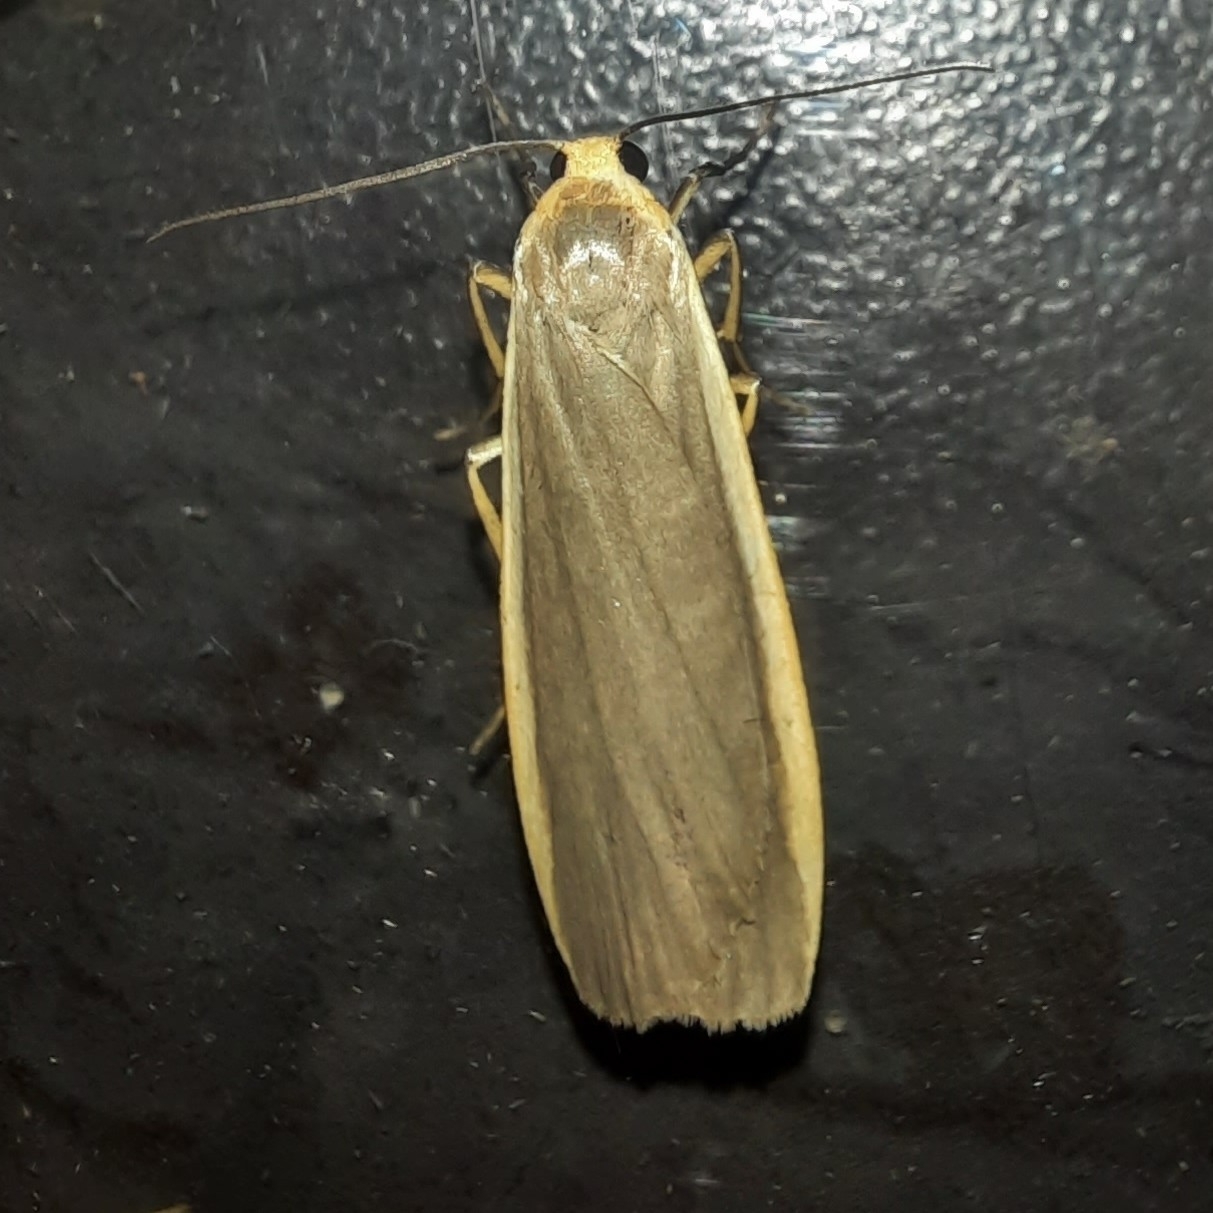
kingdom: Animalia
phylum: Arthropoda
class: Insecta
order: Lepidoptera
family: Erebidae
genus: Nyea
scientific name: Nyea lurideola
